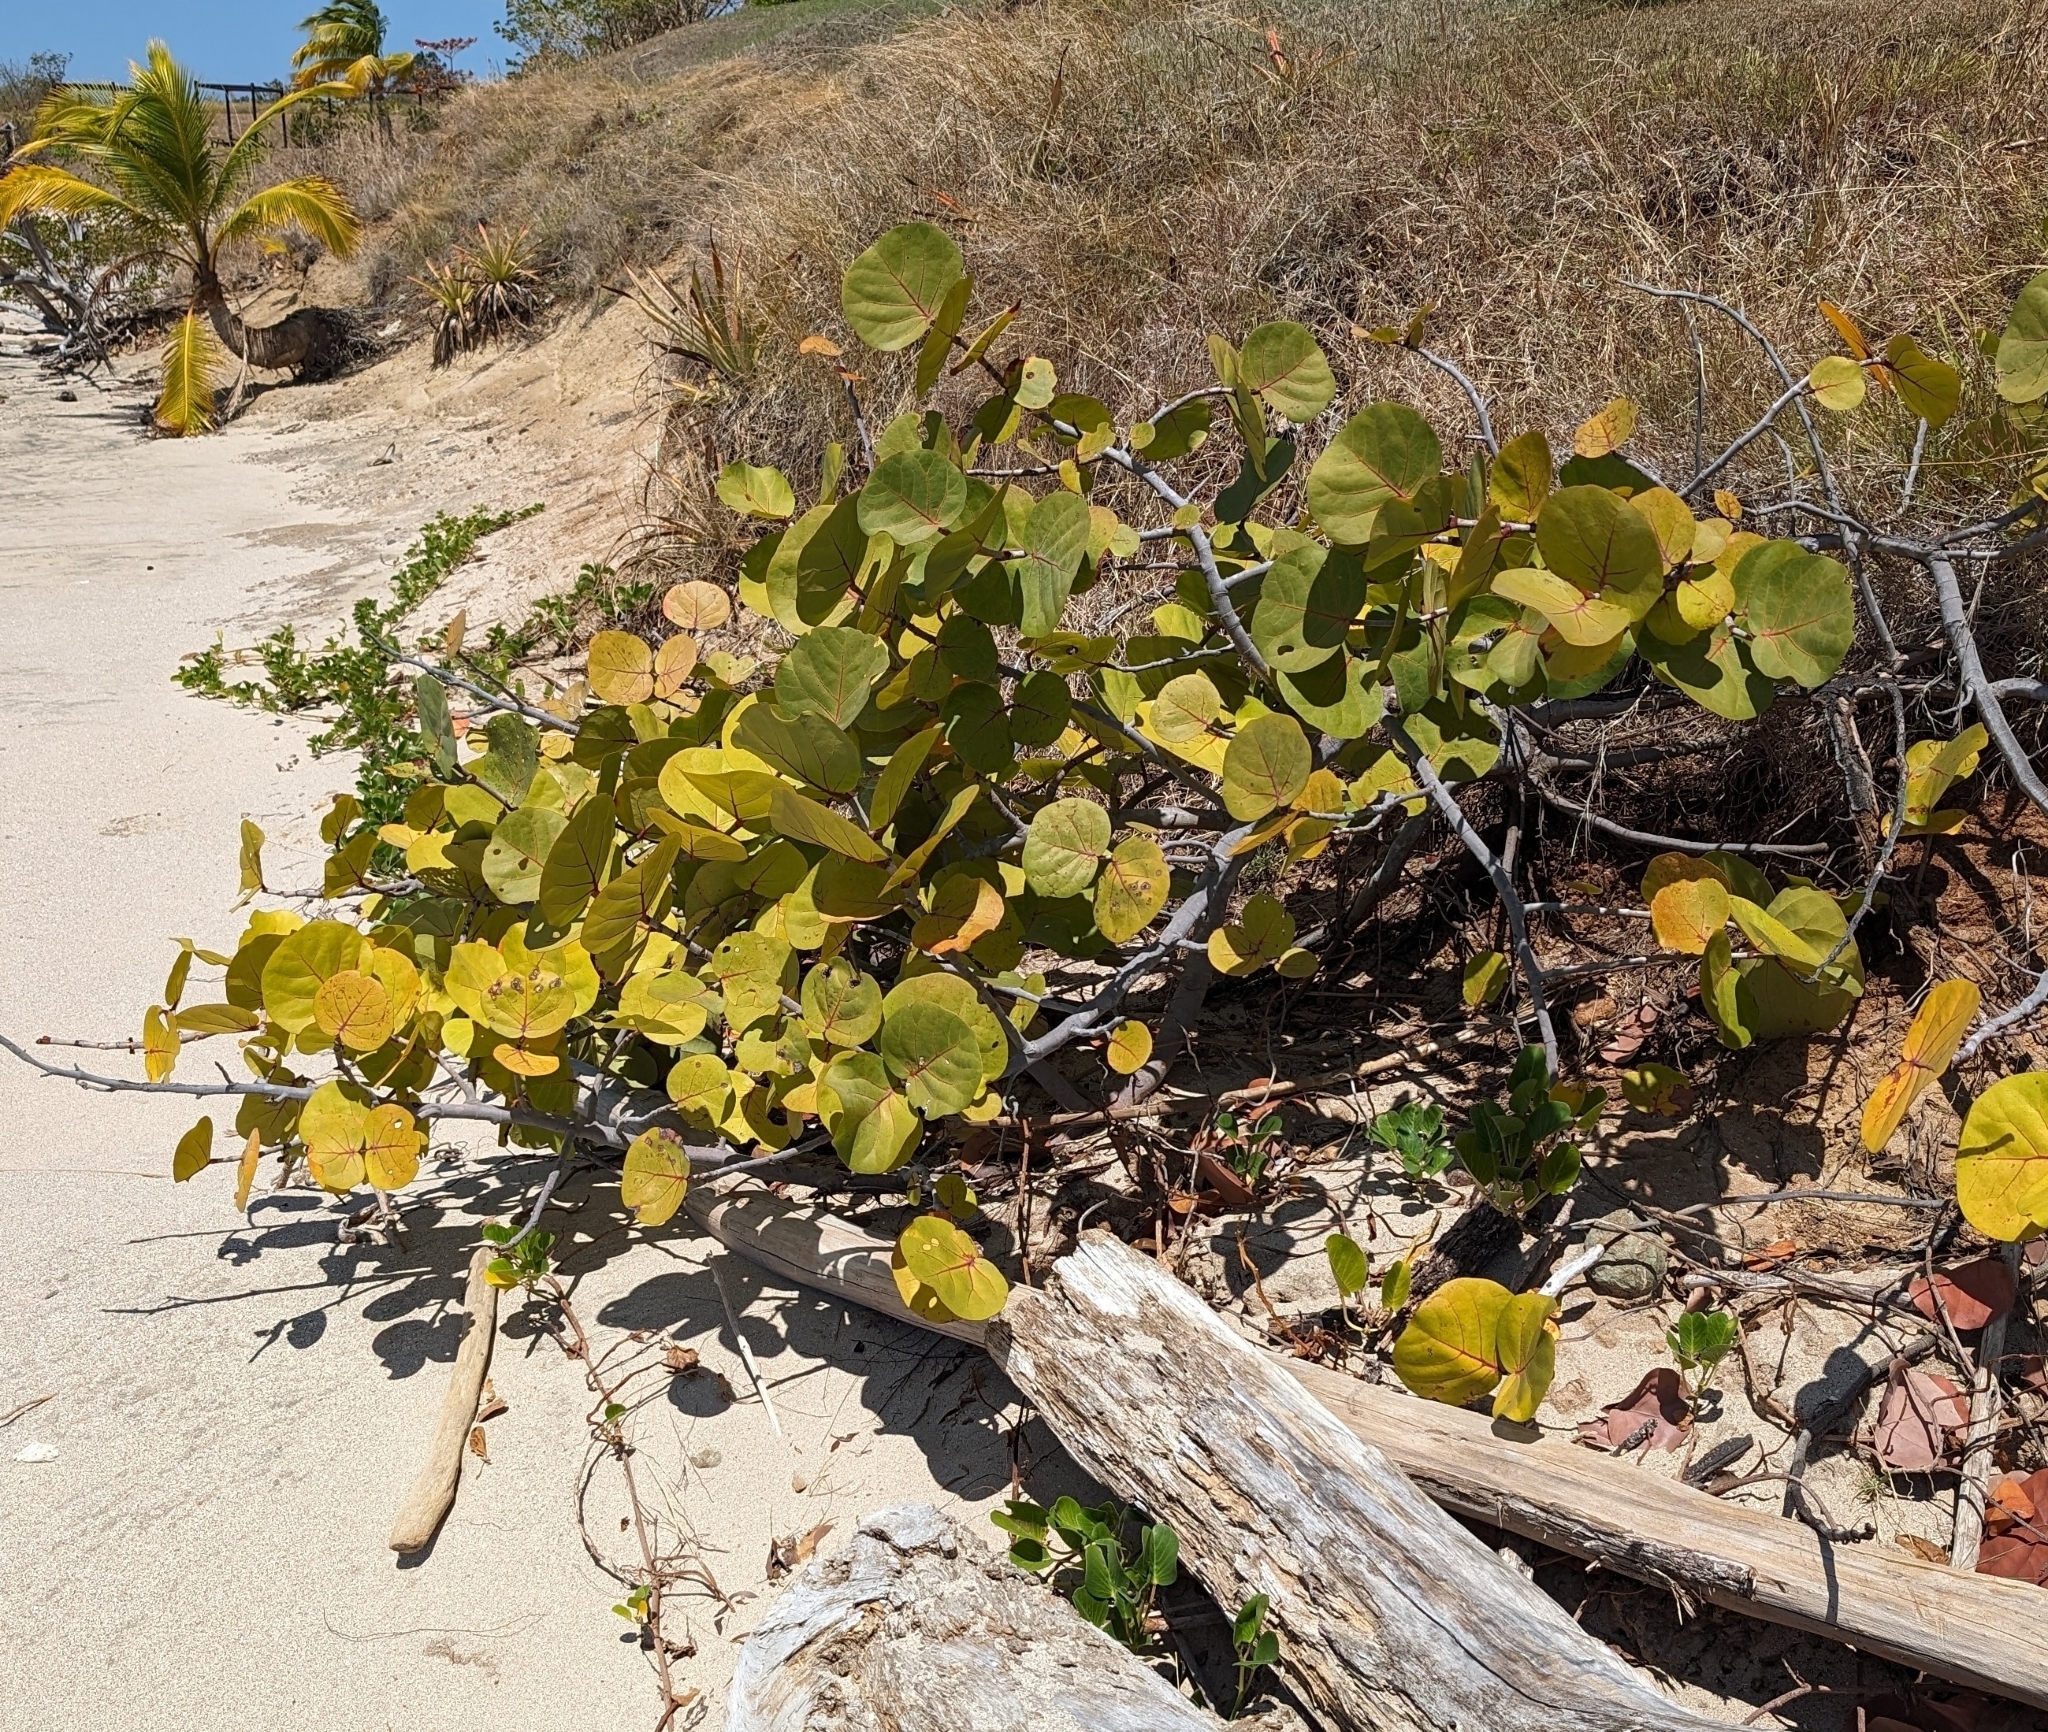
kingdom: Plantae
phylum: Tracheophyta
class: Magnoliopsida
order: Caryophyllales
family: Polygonaceae
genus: Coccoloba
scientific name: Coccoloba uvifera
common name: Seagrape
